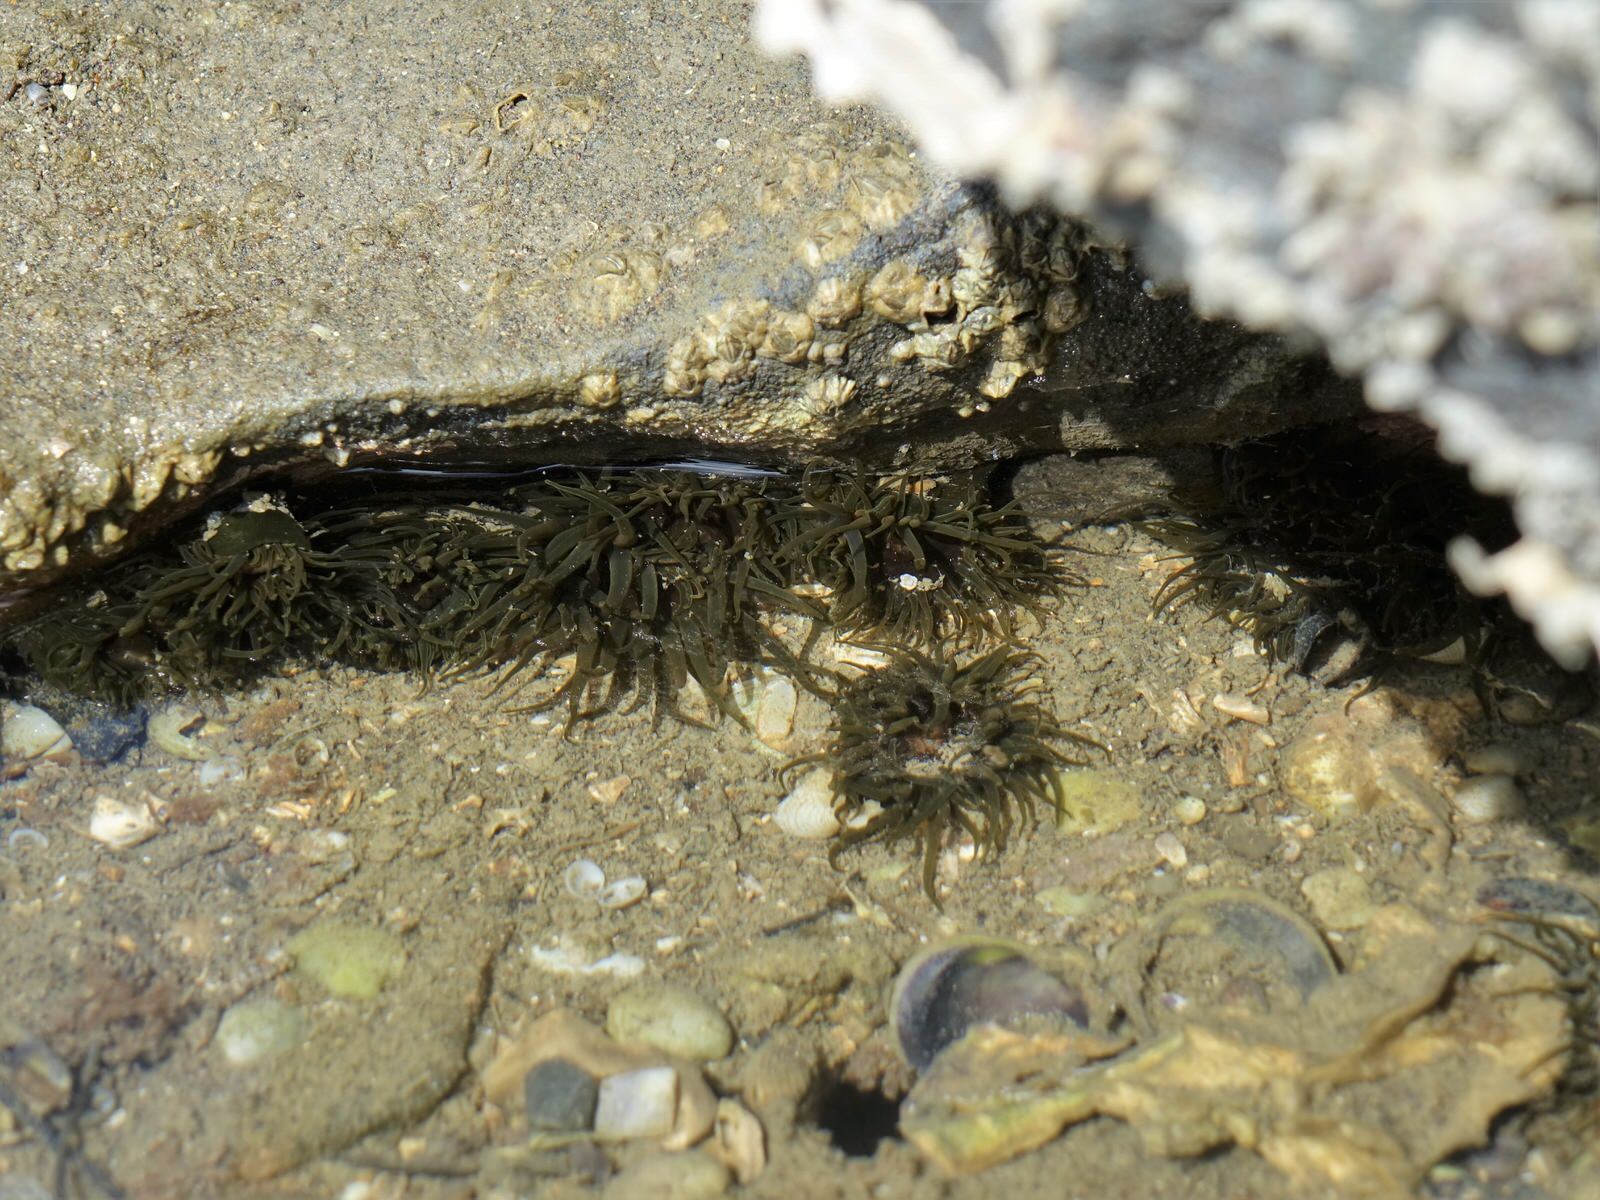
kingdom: Animalia
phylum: Cnidaria
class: Anthozoa
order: Actiniaria
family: Actiniidae
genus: Isactinia
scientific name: Isactinia olivacea
